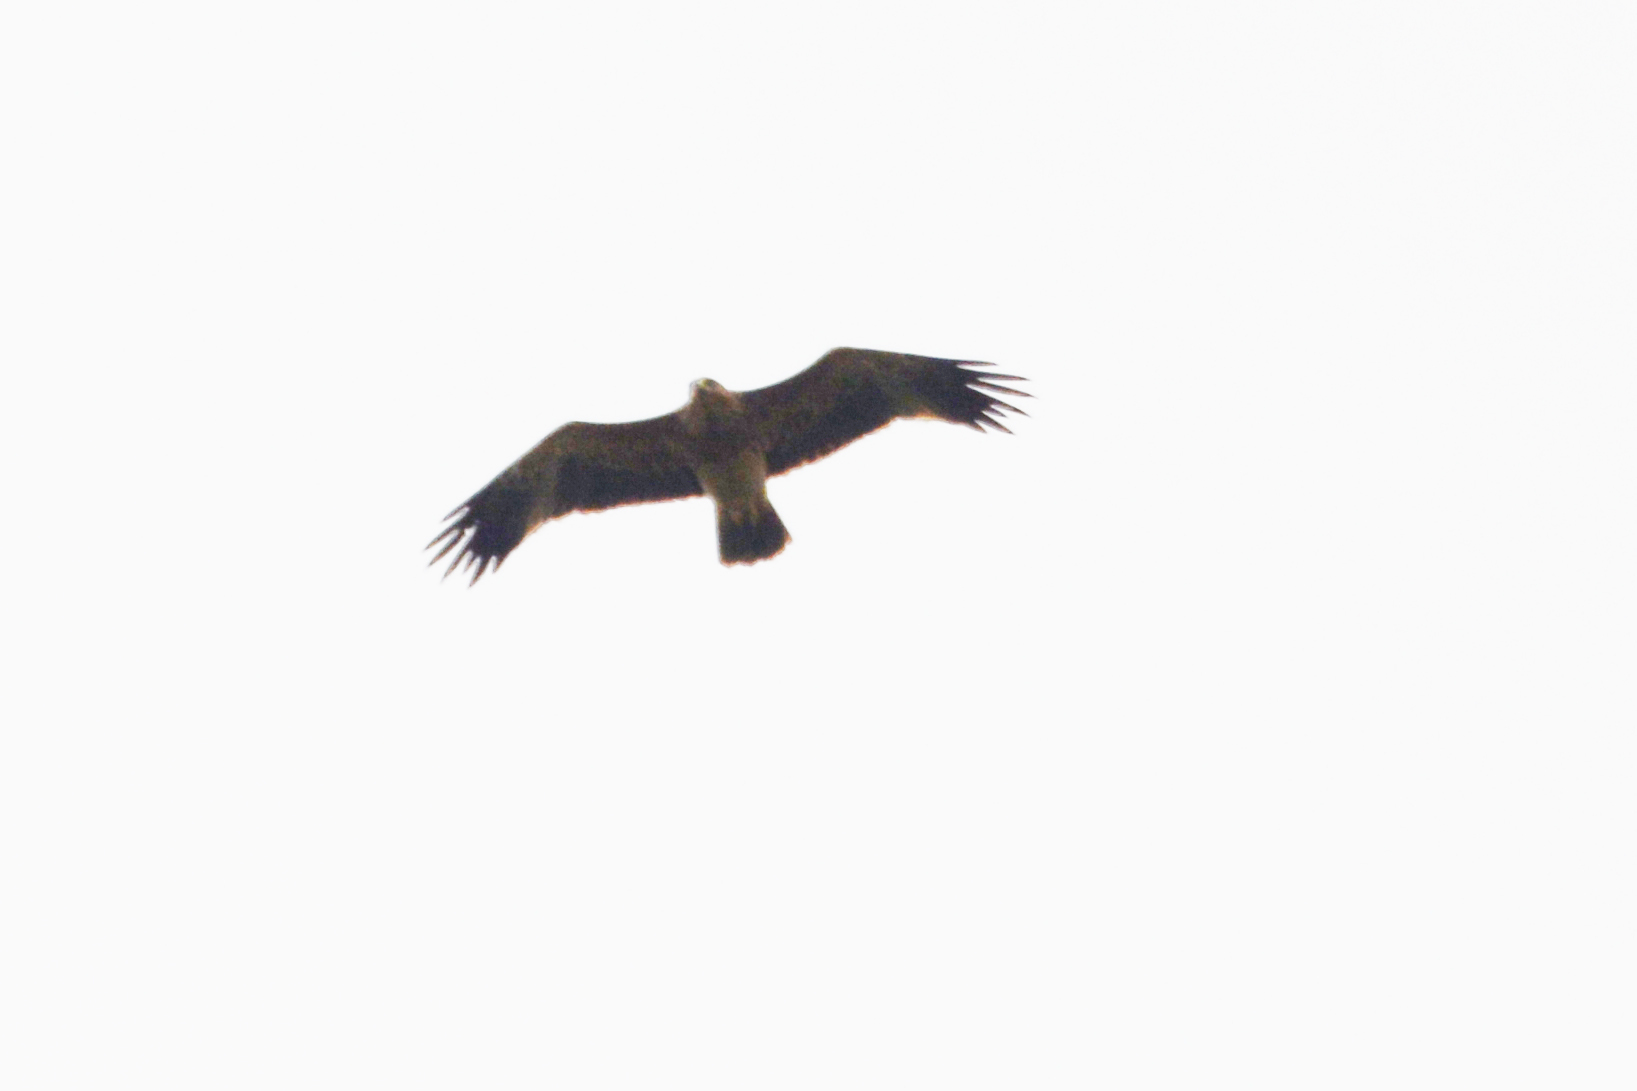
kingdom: Animalia
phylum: Chordata
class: Aves
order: Accipitriformes
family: Accipitridae
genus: Aquila
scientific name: Aquila heliaca
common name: Eastern imperial eagle
